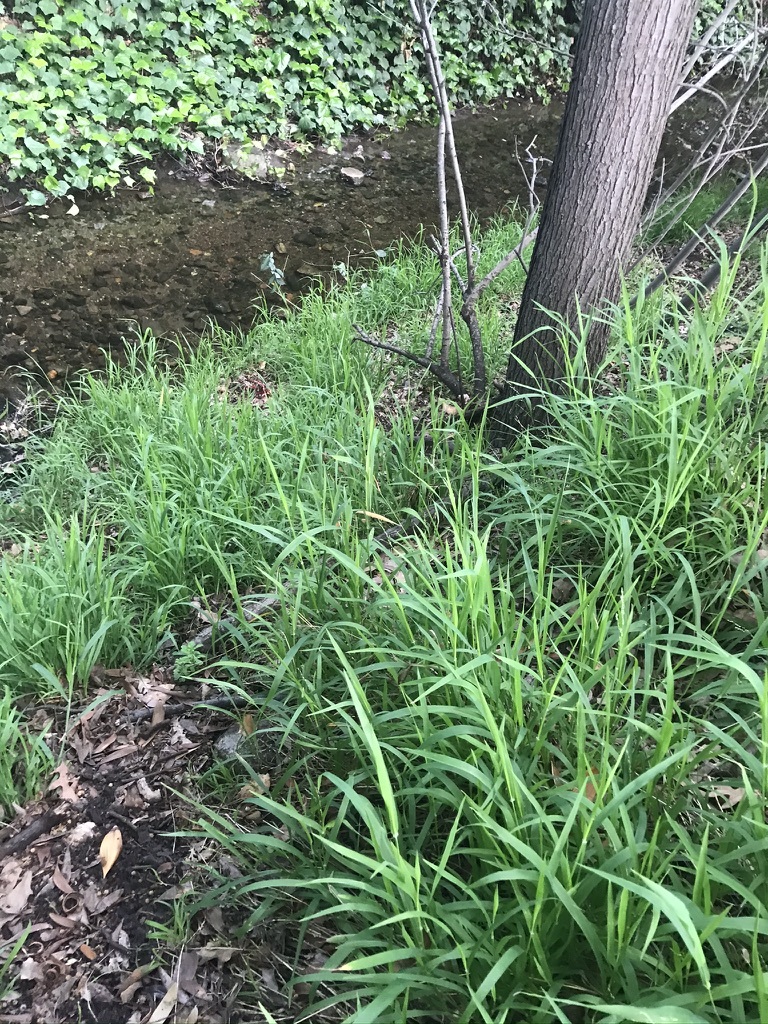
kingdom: Plantae
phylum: Tracheophyta
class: Liliopsida
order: Poales
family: Poaceae
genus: Ehrharta
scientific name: Ehrharta erecta
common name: Panic veldtgrass
